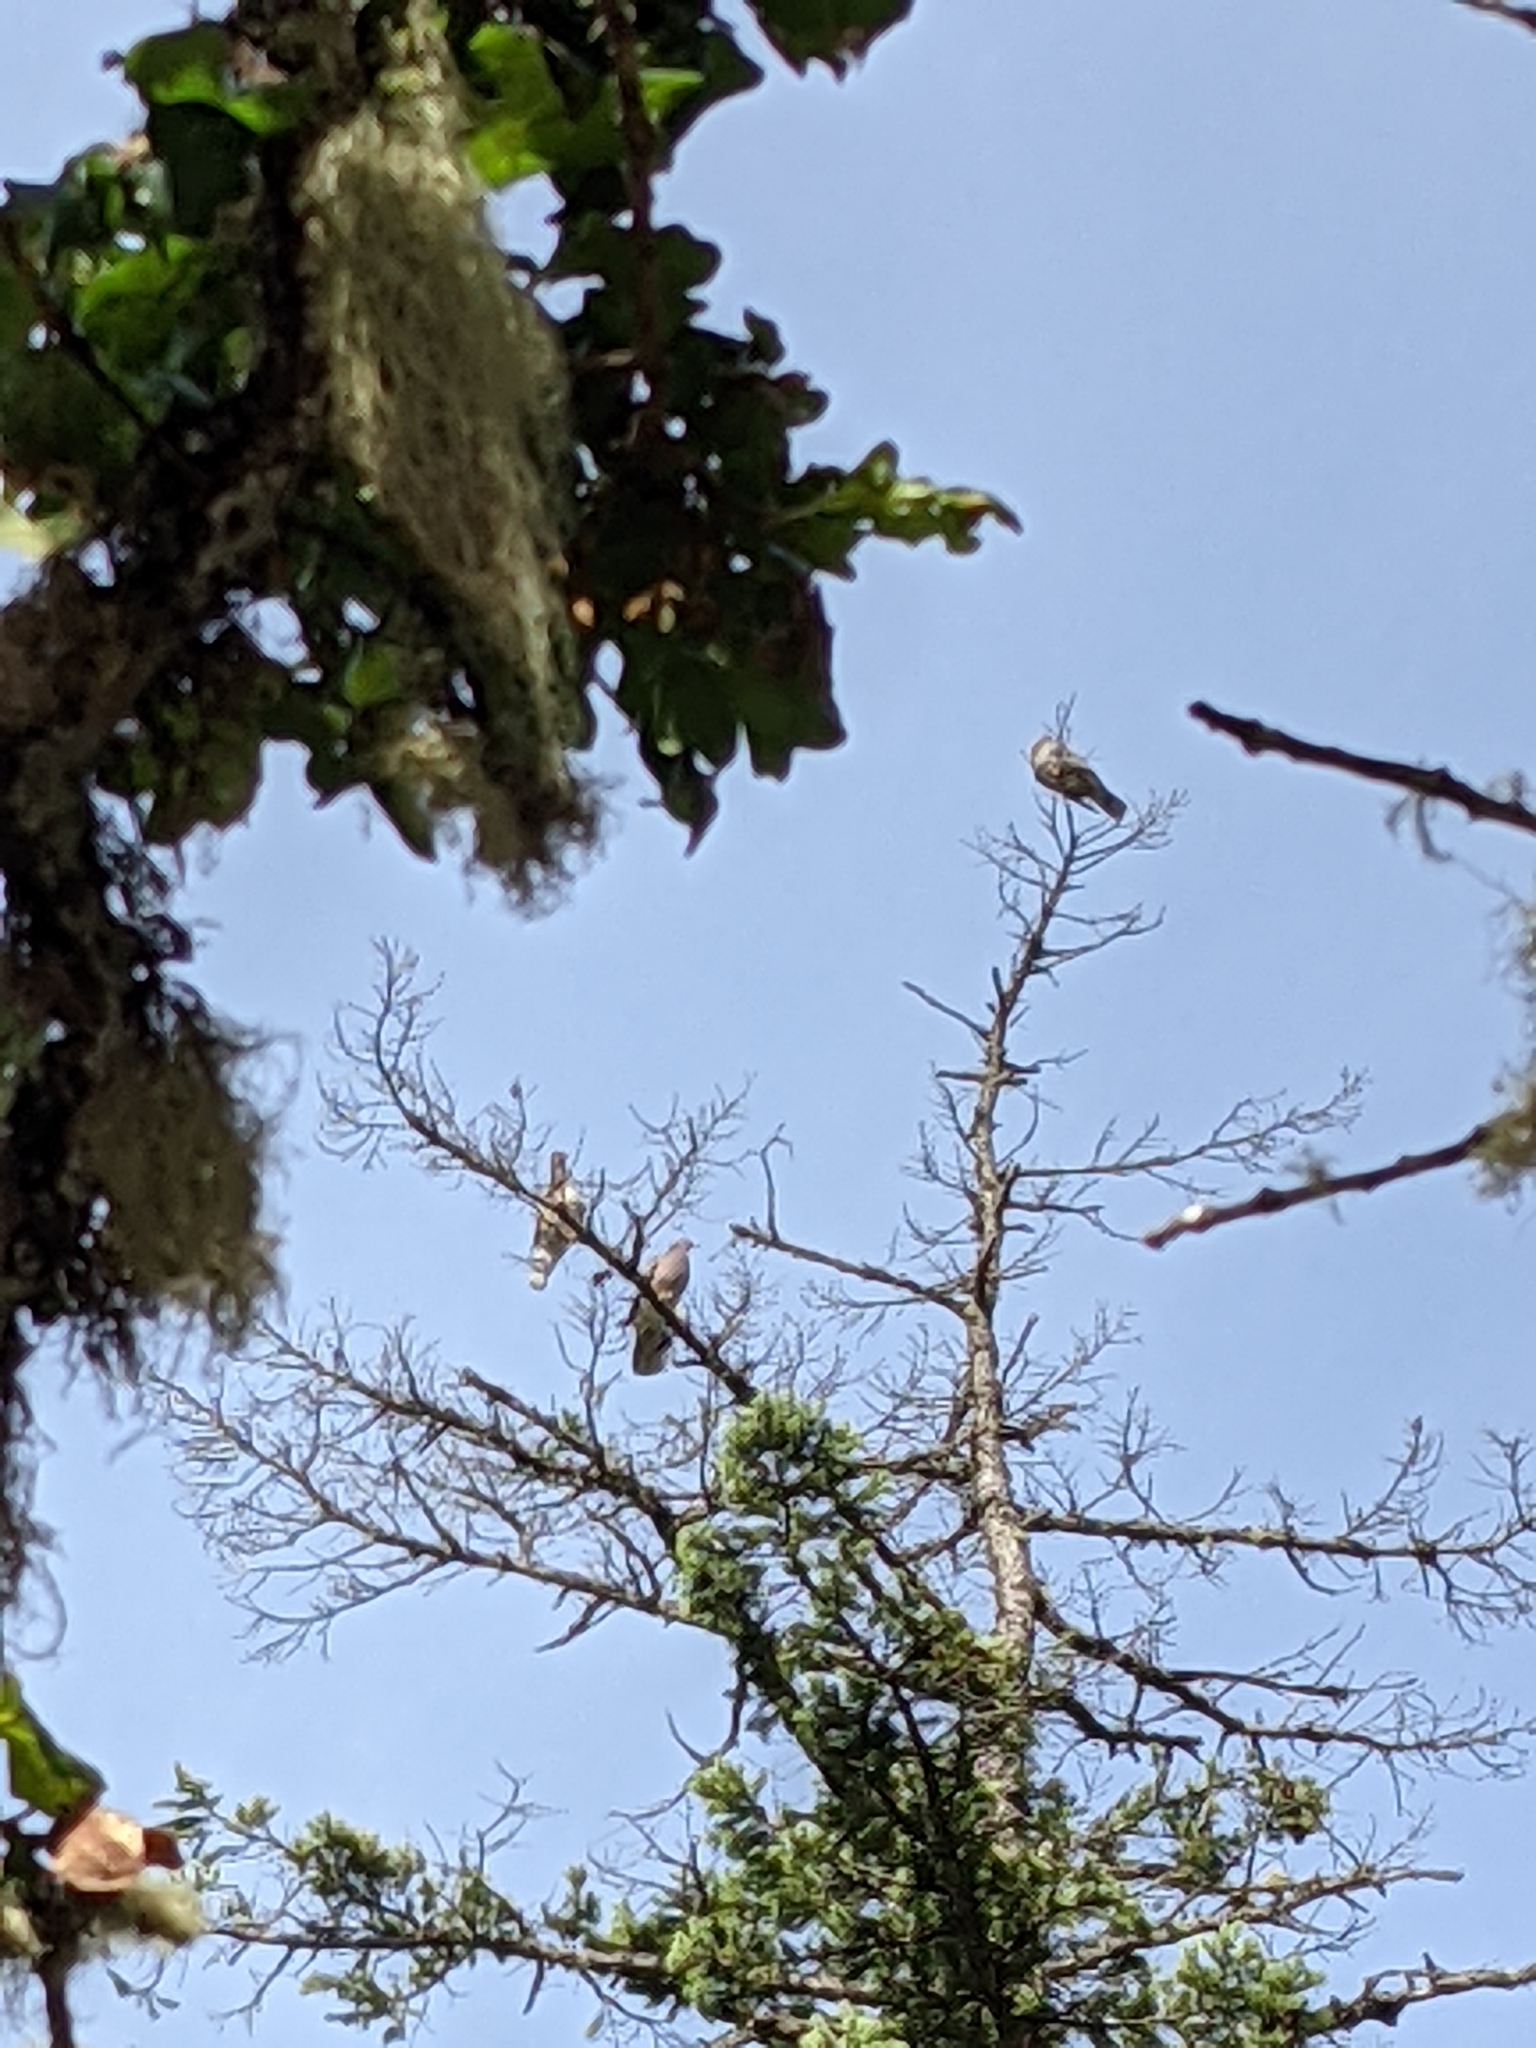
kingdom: Animalia
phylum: Chordata
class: Aves
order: Columbiformes
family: Columbidae
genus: Patagioenas
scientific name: Patagioenas fasciata
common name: Band-tailed pigeon
